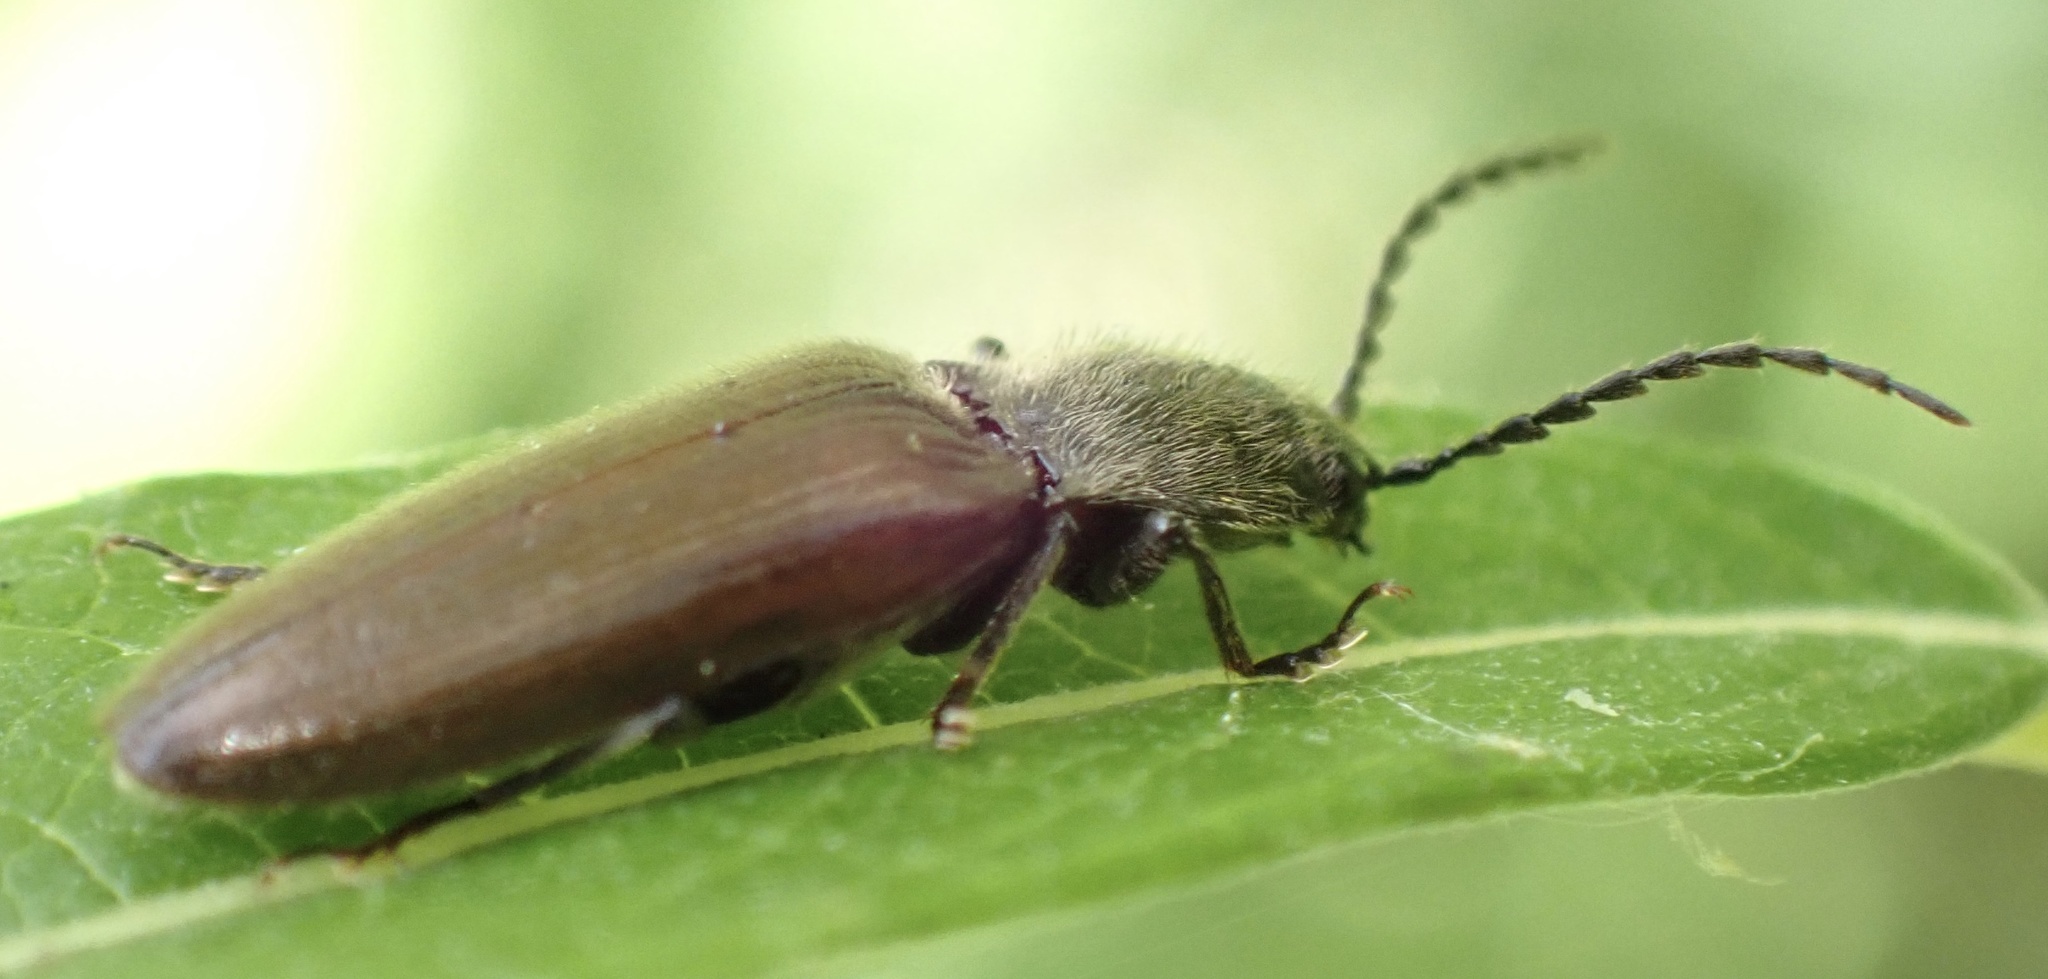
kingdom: Animalia
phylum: Arthropoda
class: Insecta
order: Coleoptera
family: Elateridae
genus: Hemicrepidius
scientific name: Hemicrepidius niger
